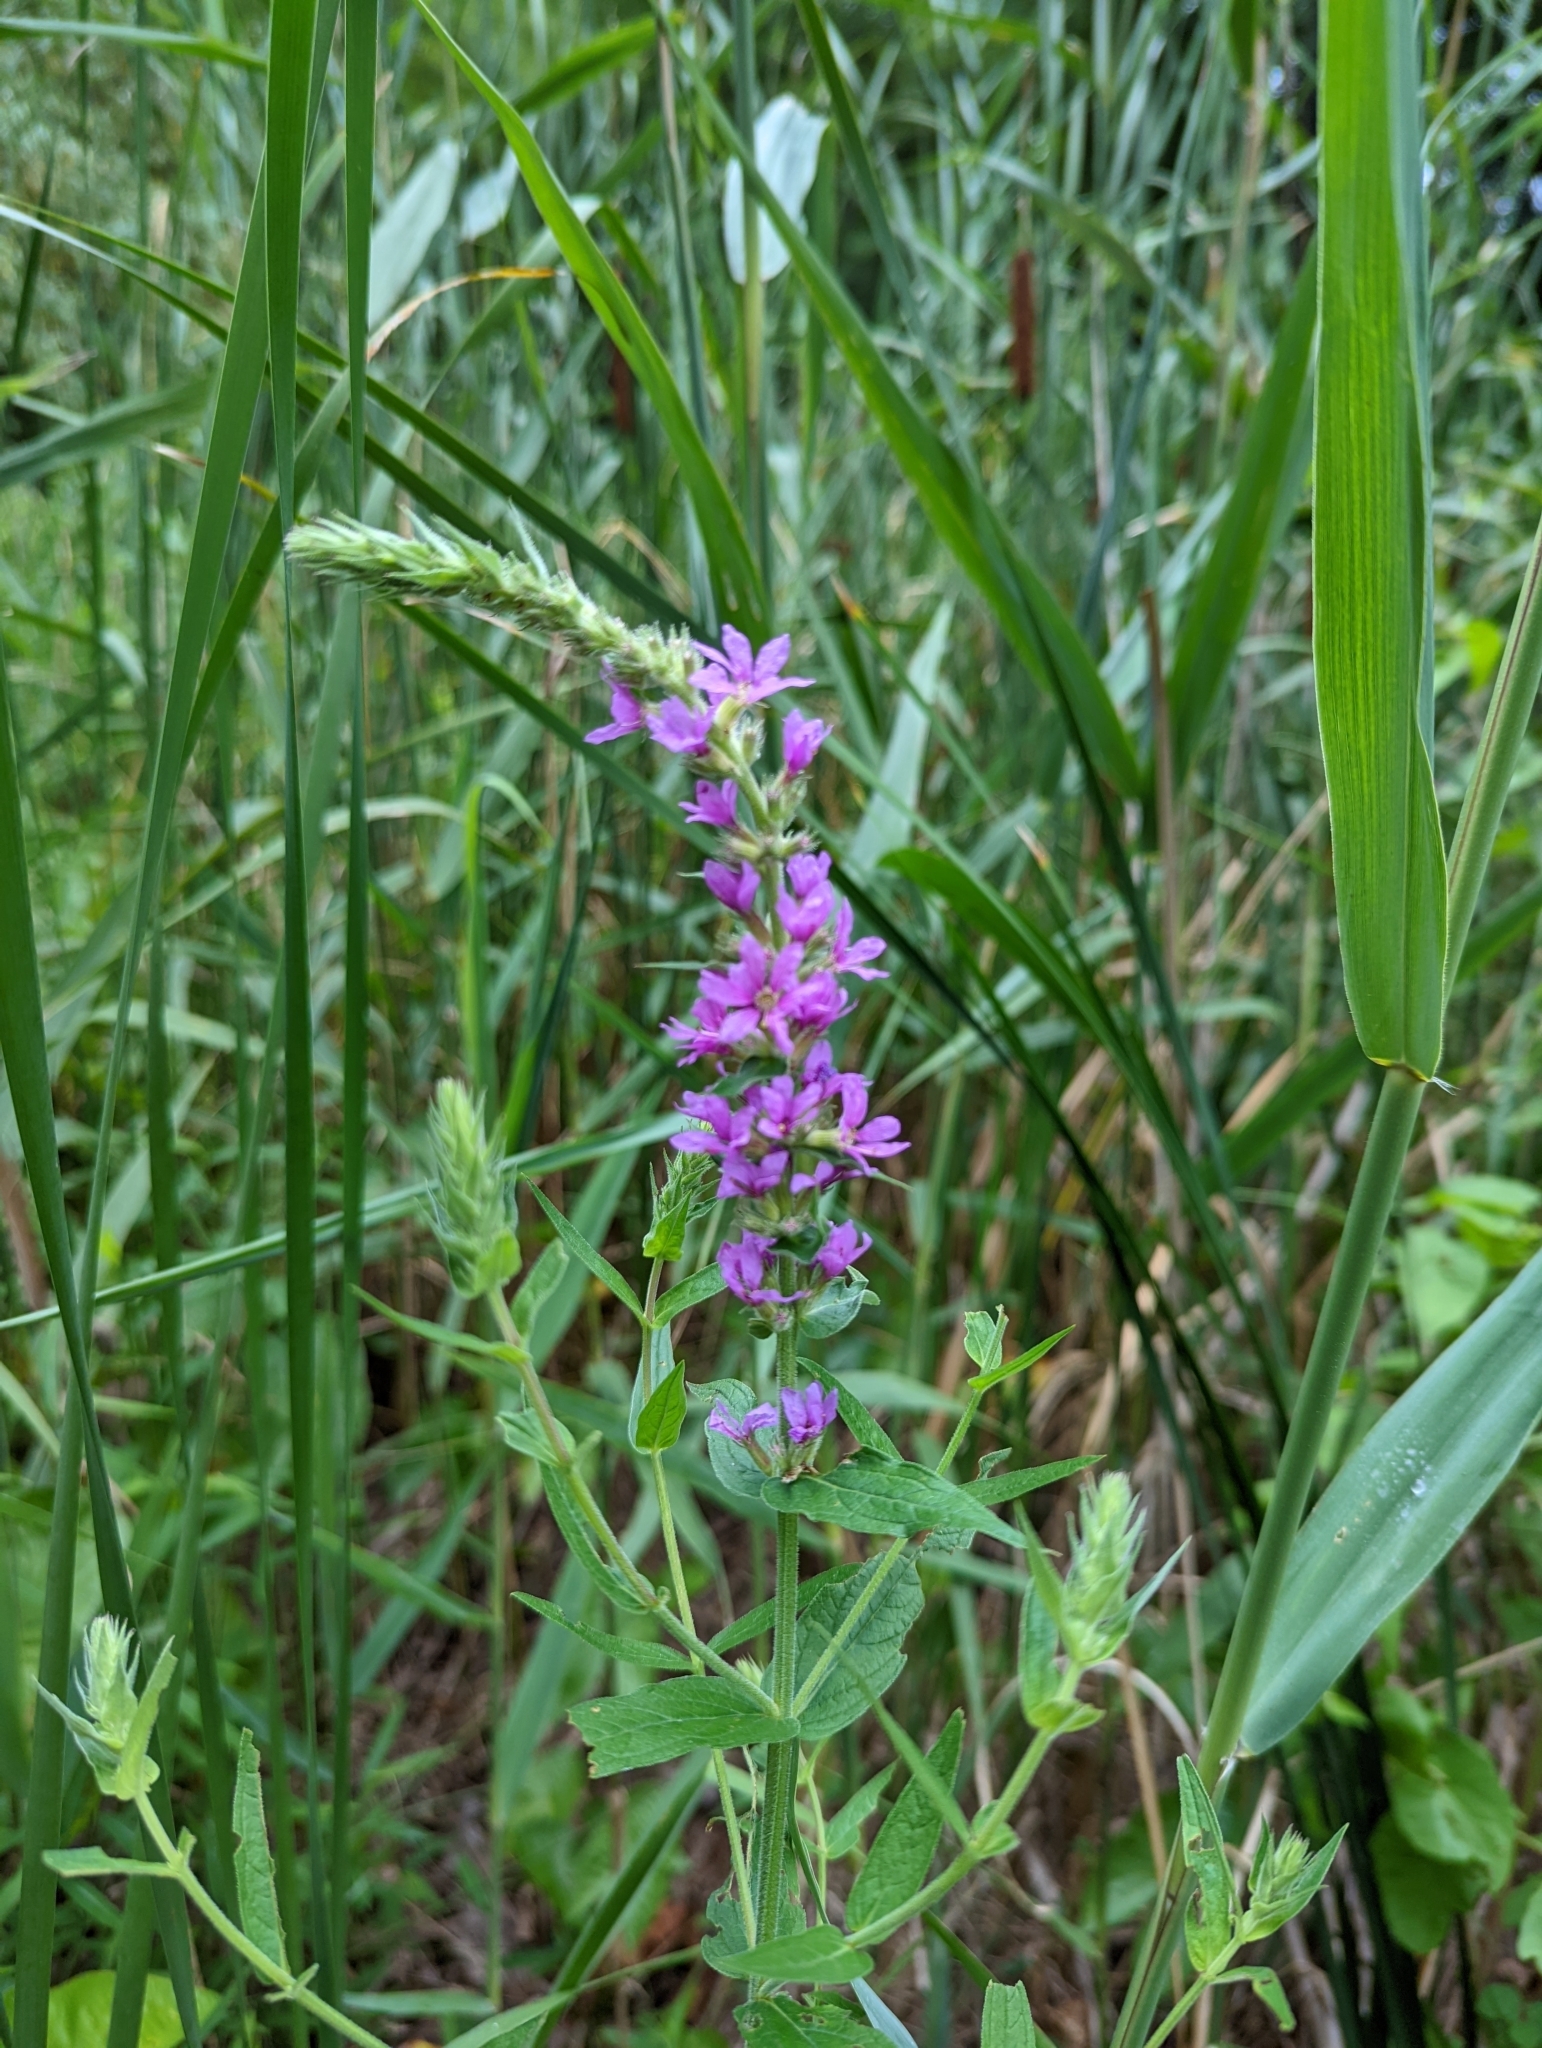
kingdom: Plantae
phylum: Tracheophyta
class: Magnoliopsida
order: Myrtales
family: Lythraceae
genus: Lythrum
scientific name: Lythrum salicaria
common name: Purple loosestrife
